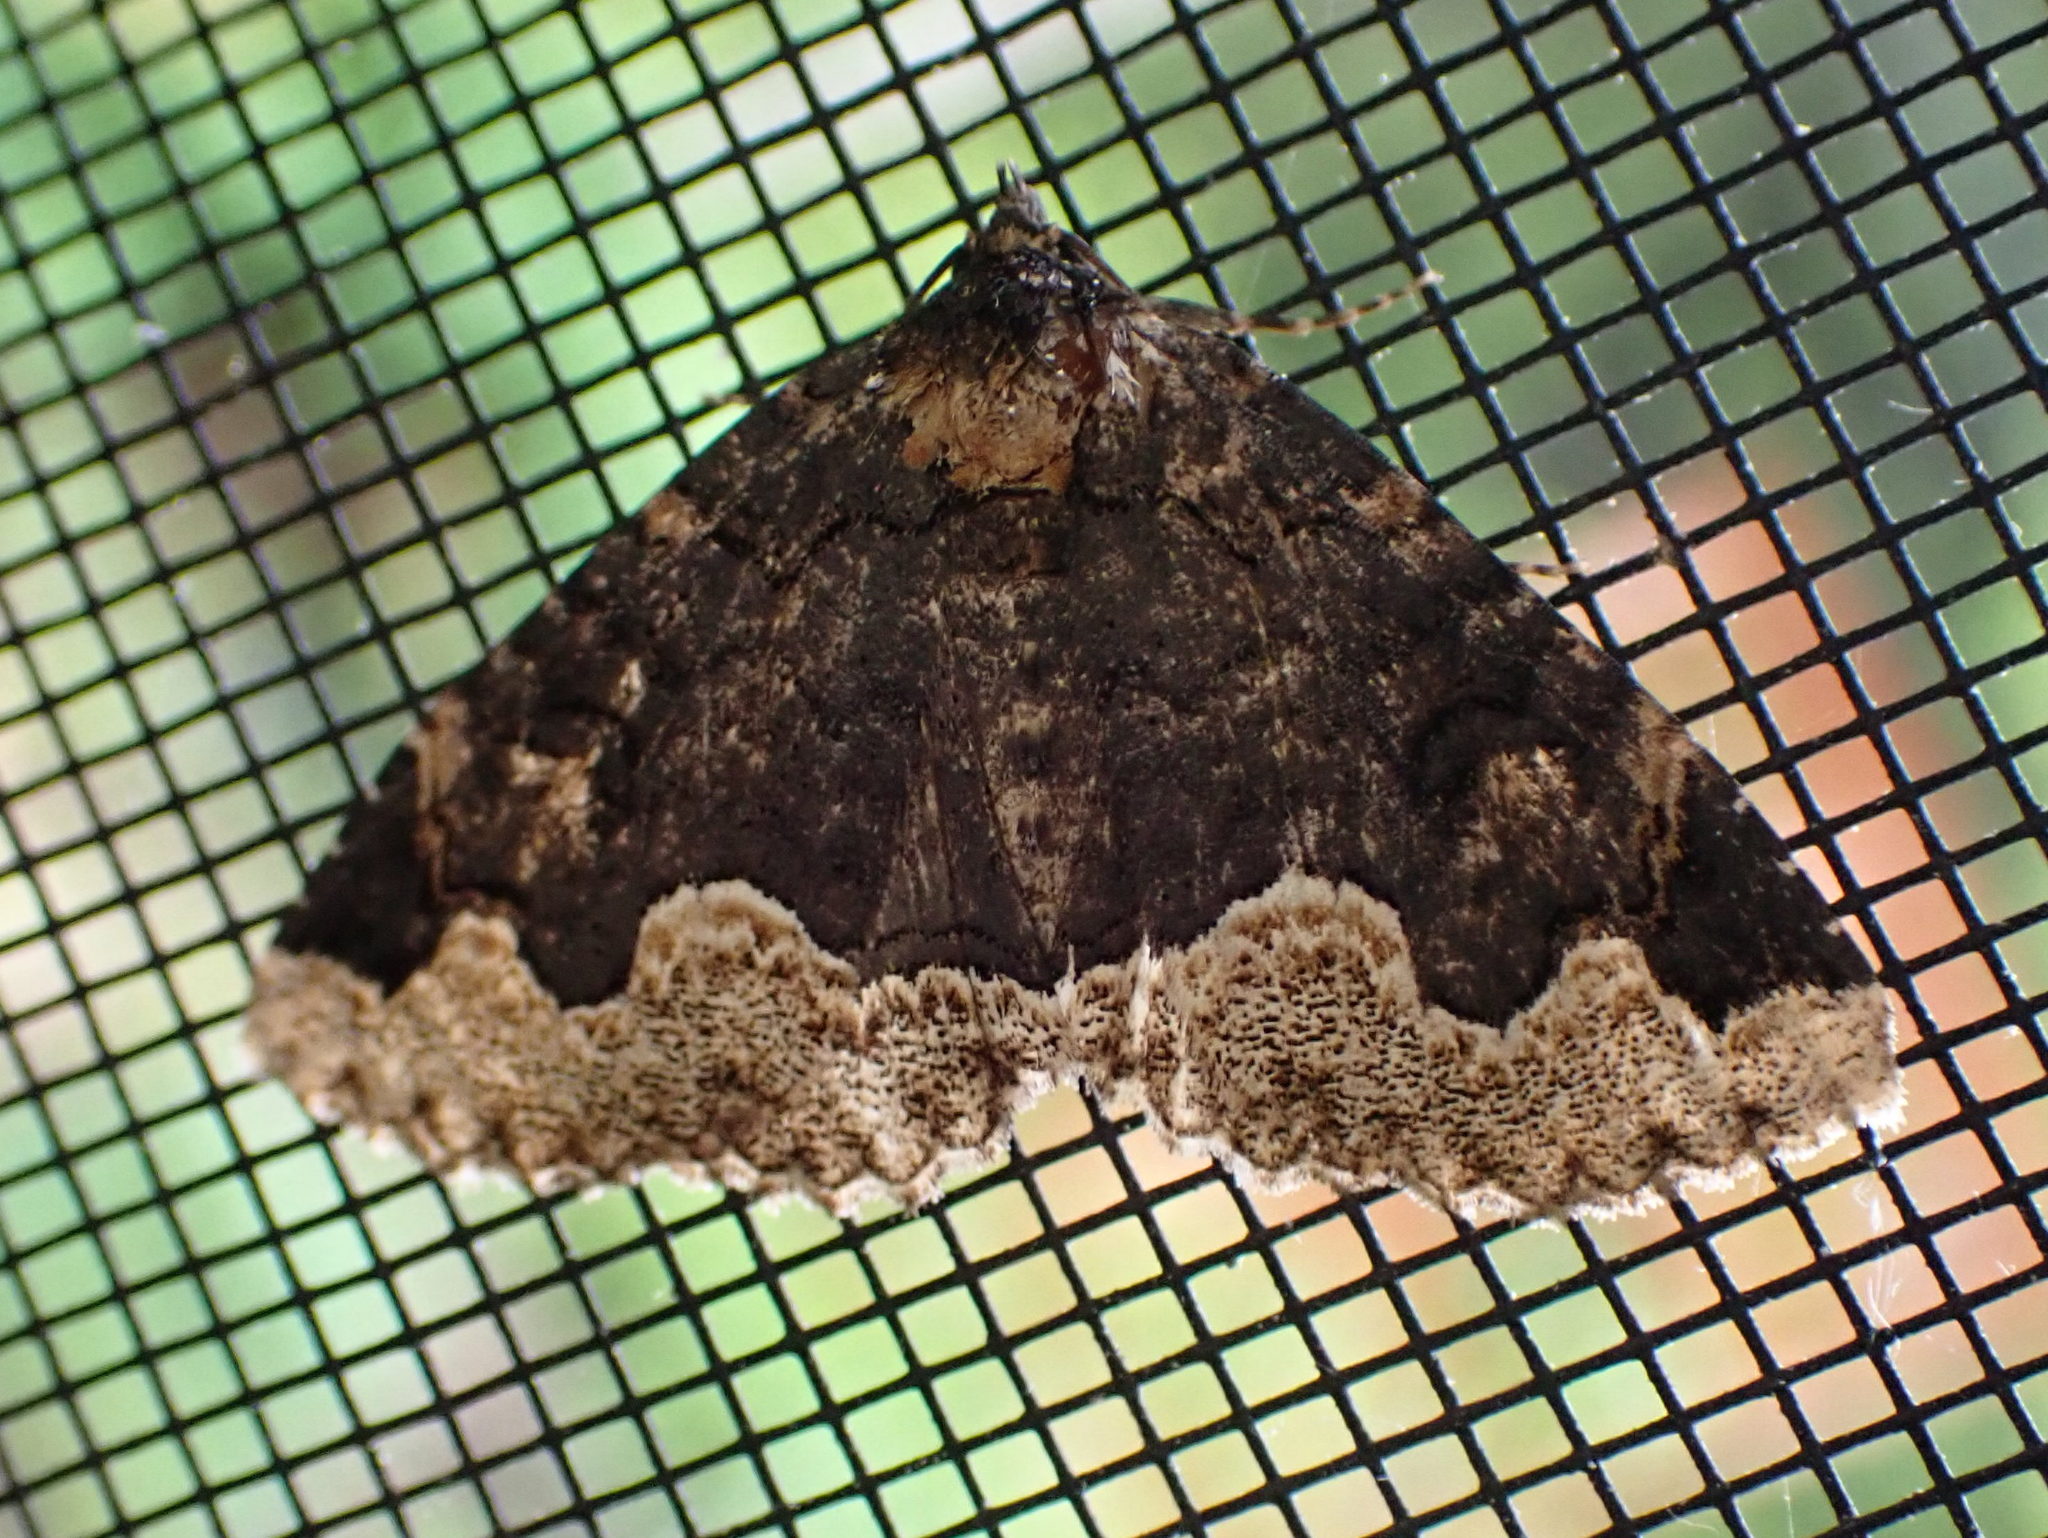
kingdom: Animalia
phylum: Arthropoda
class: Insecta
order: Lepidoptera
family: Erebidae
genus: Zale
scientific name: Zale horrida
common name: Horrid zale moth
